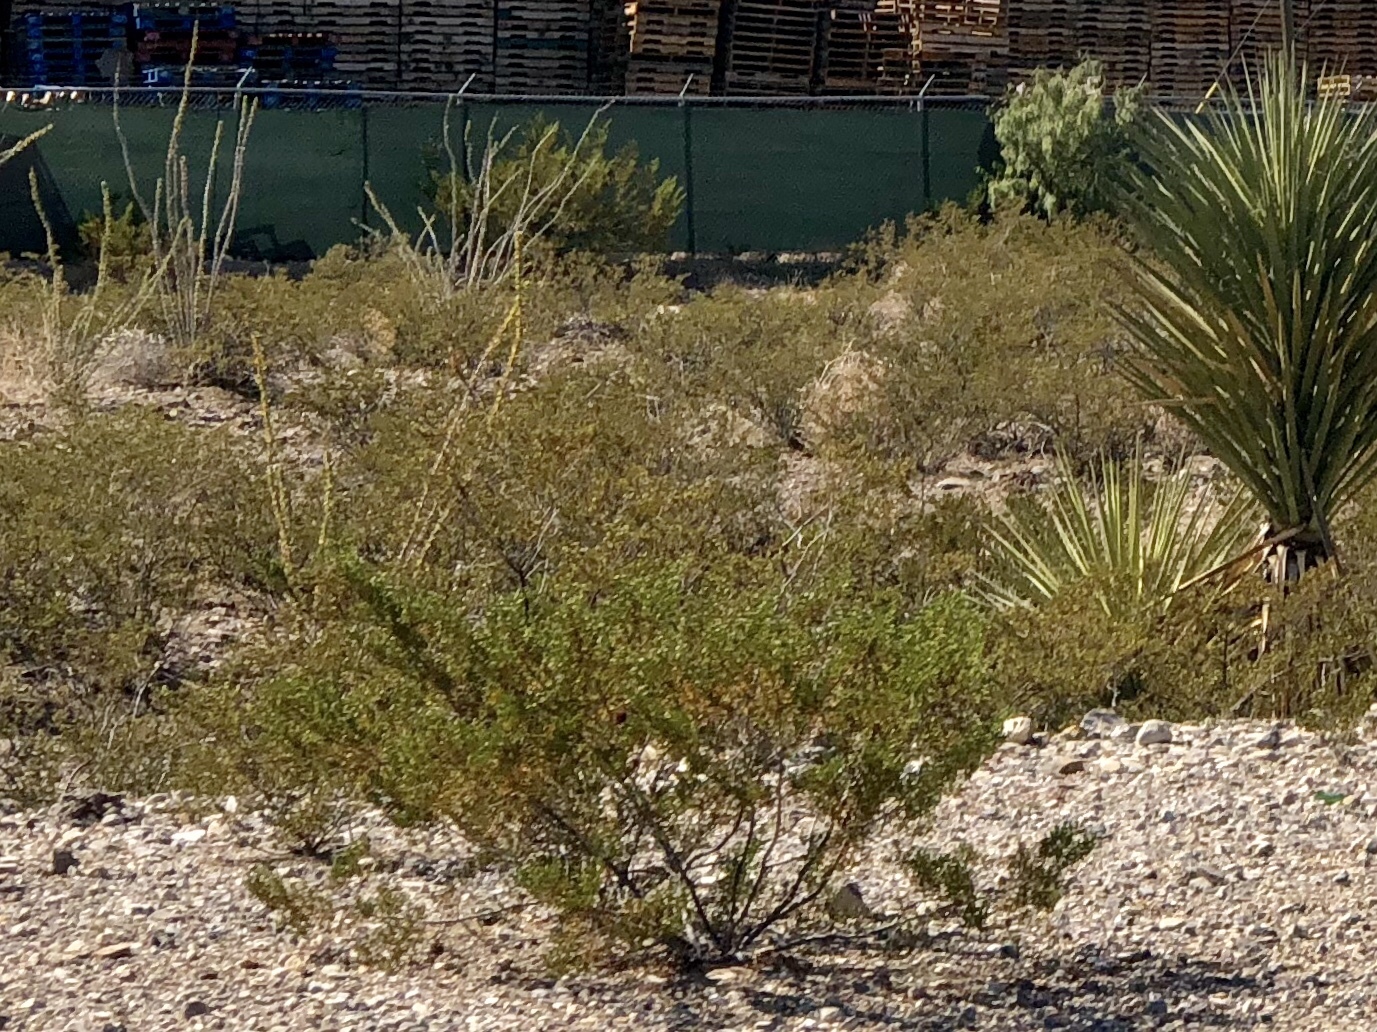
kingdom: Plantae
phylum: Tracheophyta
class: Magnoliopsida
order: Zygophyllales
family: Zygophyllaceae
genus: Larrea
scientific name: Larrea tridentata
